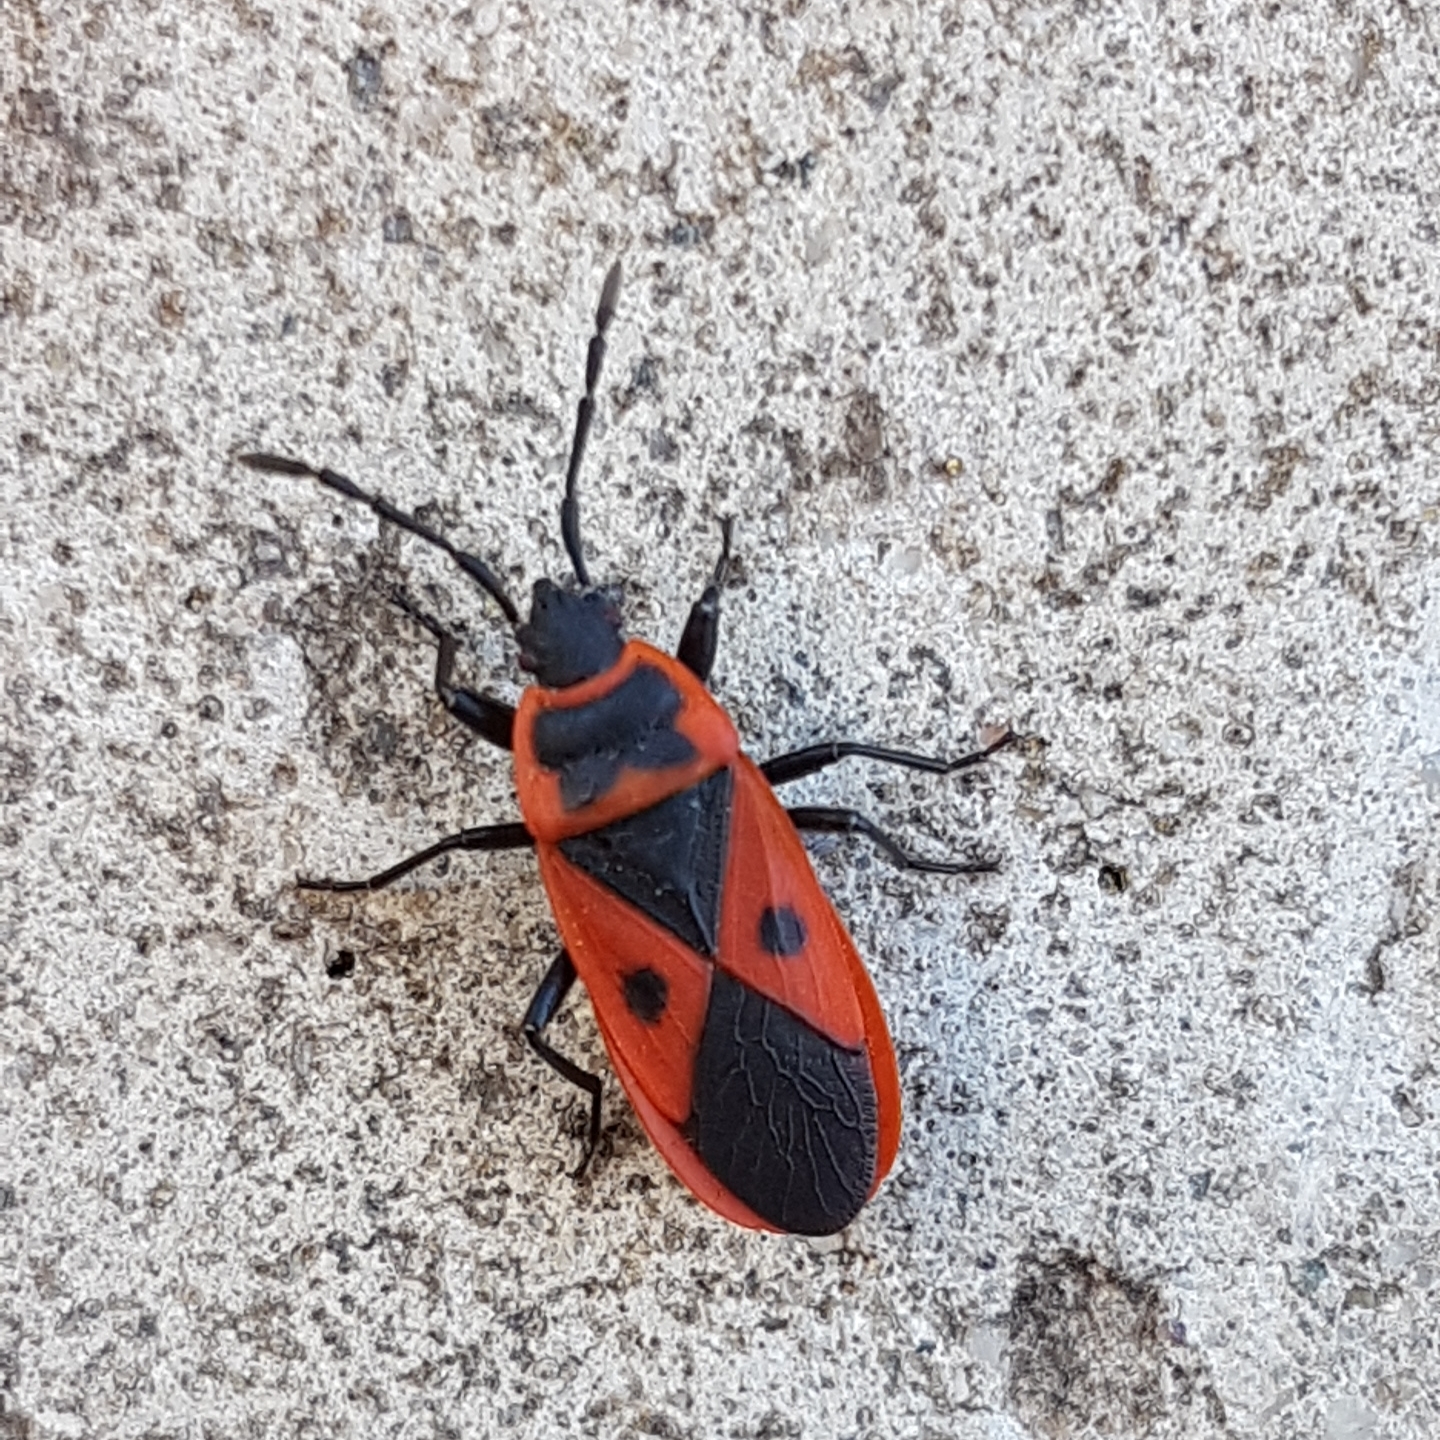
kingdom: Animalia
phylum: Arthropoda
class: Insecta
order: Hemiptera
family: Pyrrhocoridae
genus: Scantius
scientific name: Scantius aegyptius
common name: Red bug
